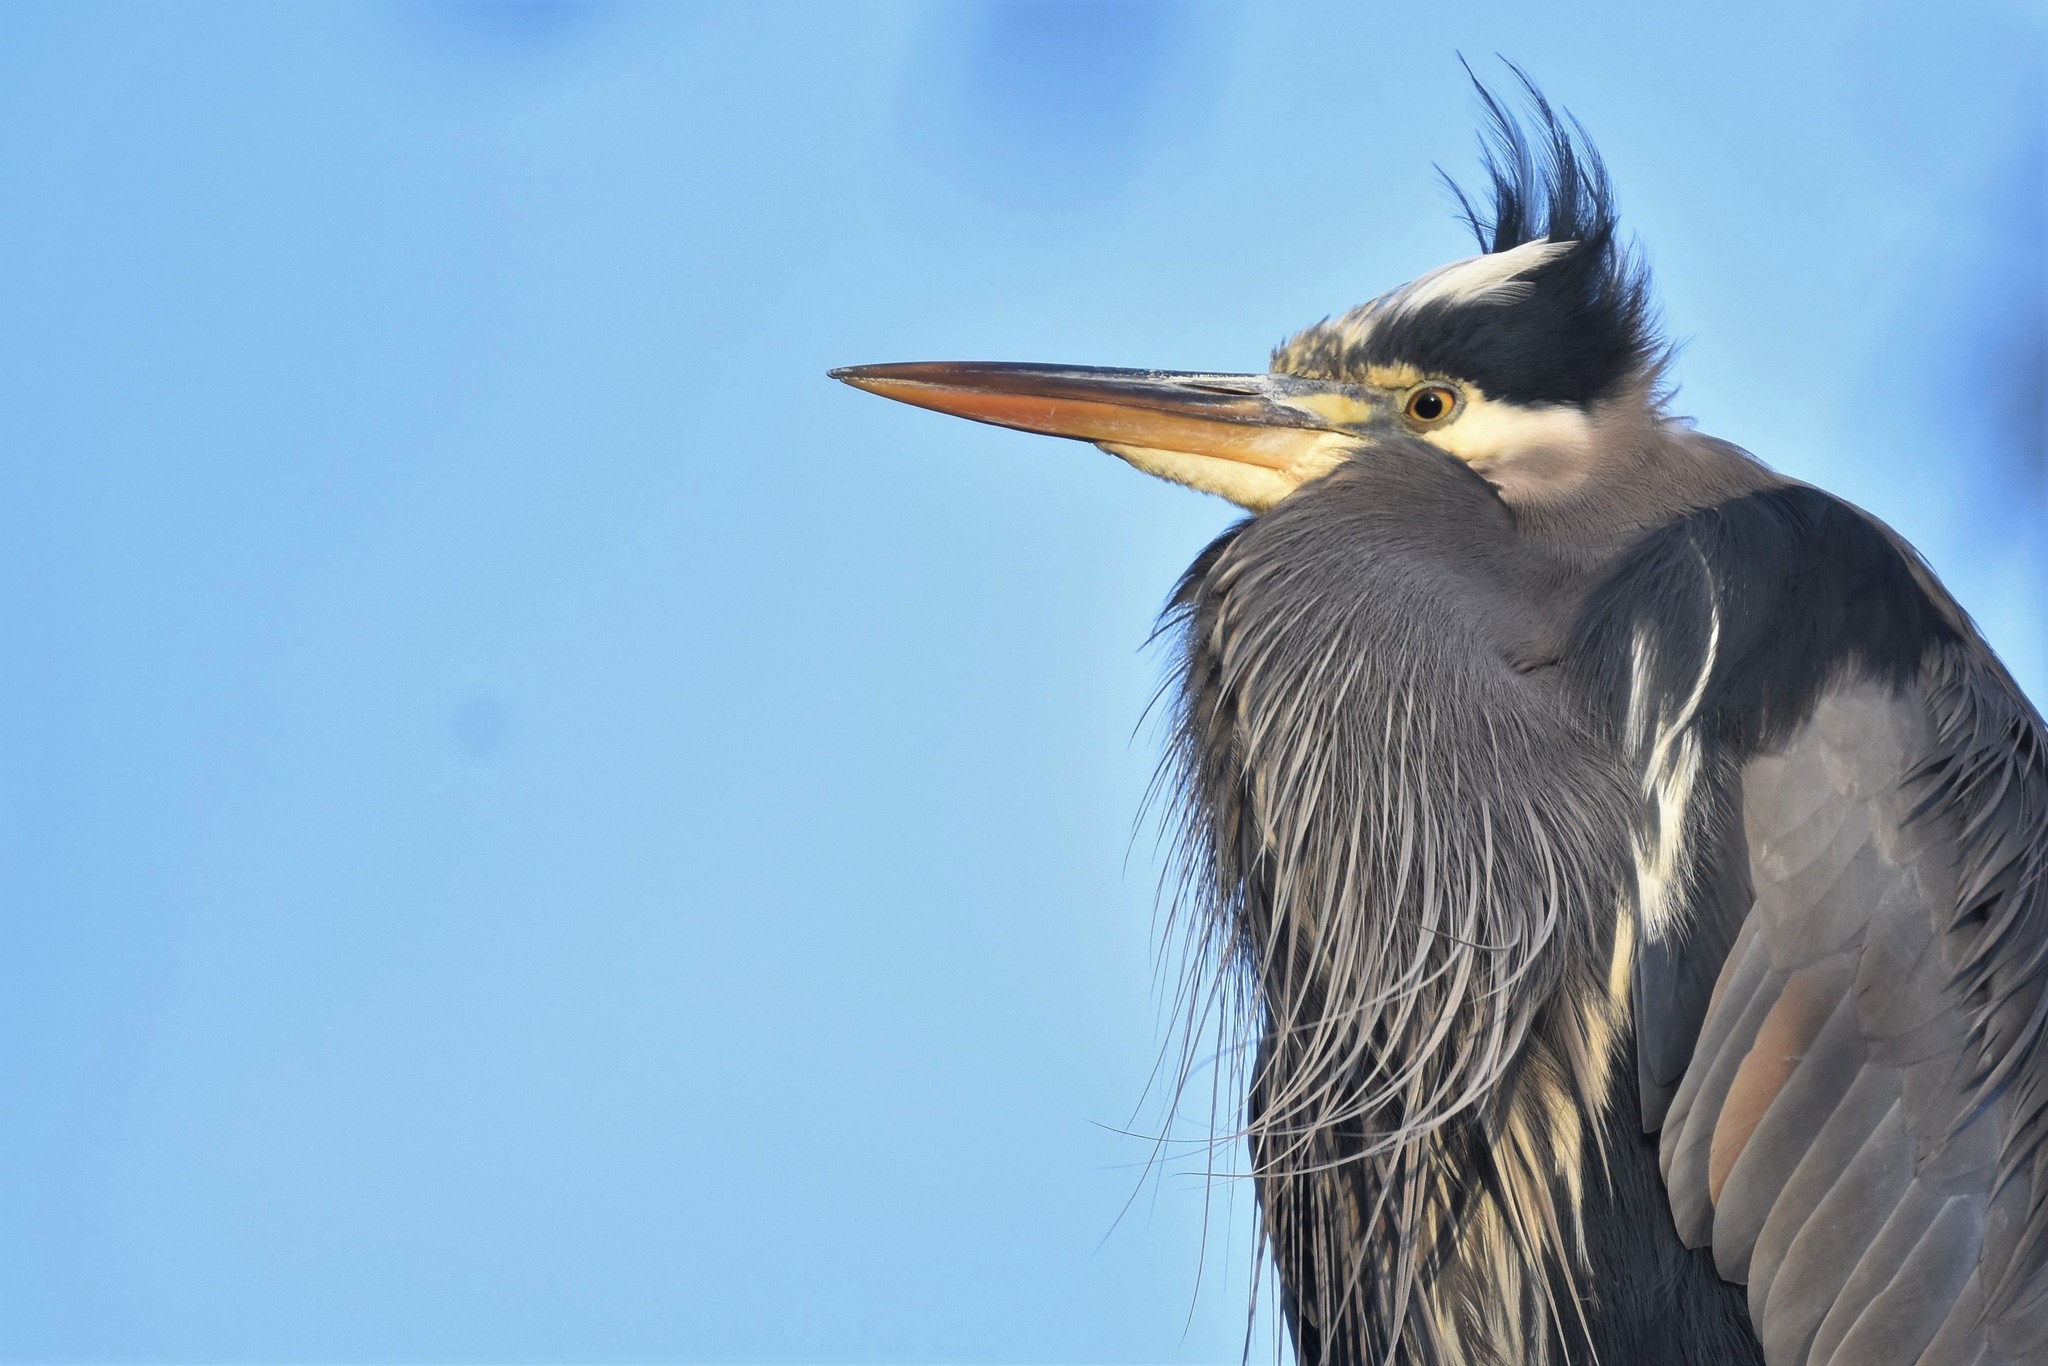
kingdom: Animalia
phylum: Chordata
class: Aves
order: Pelecaniformes
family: Ardeidae
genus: Ardea
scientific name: Ardea herodias
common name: Great blue heron
